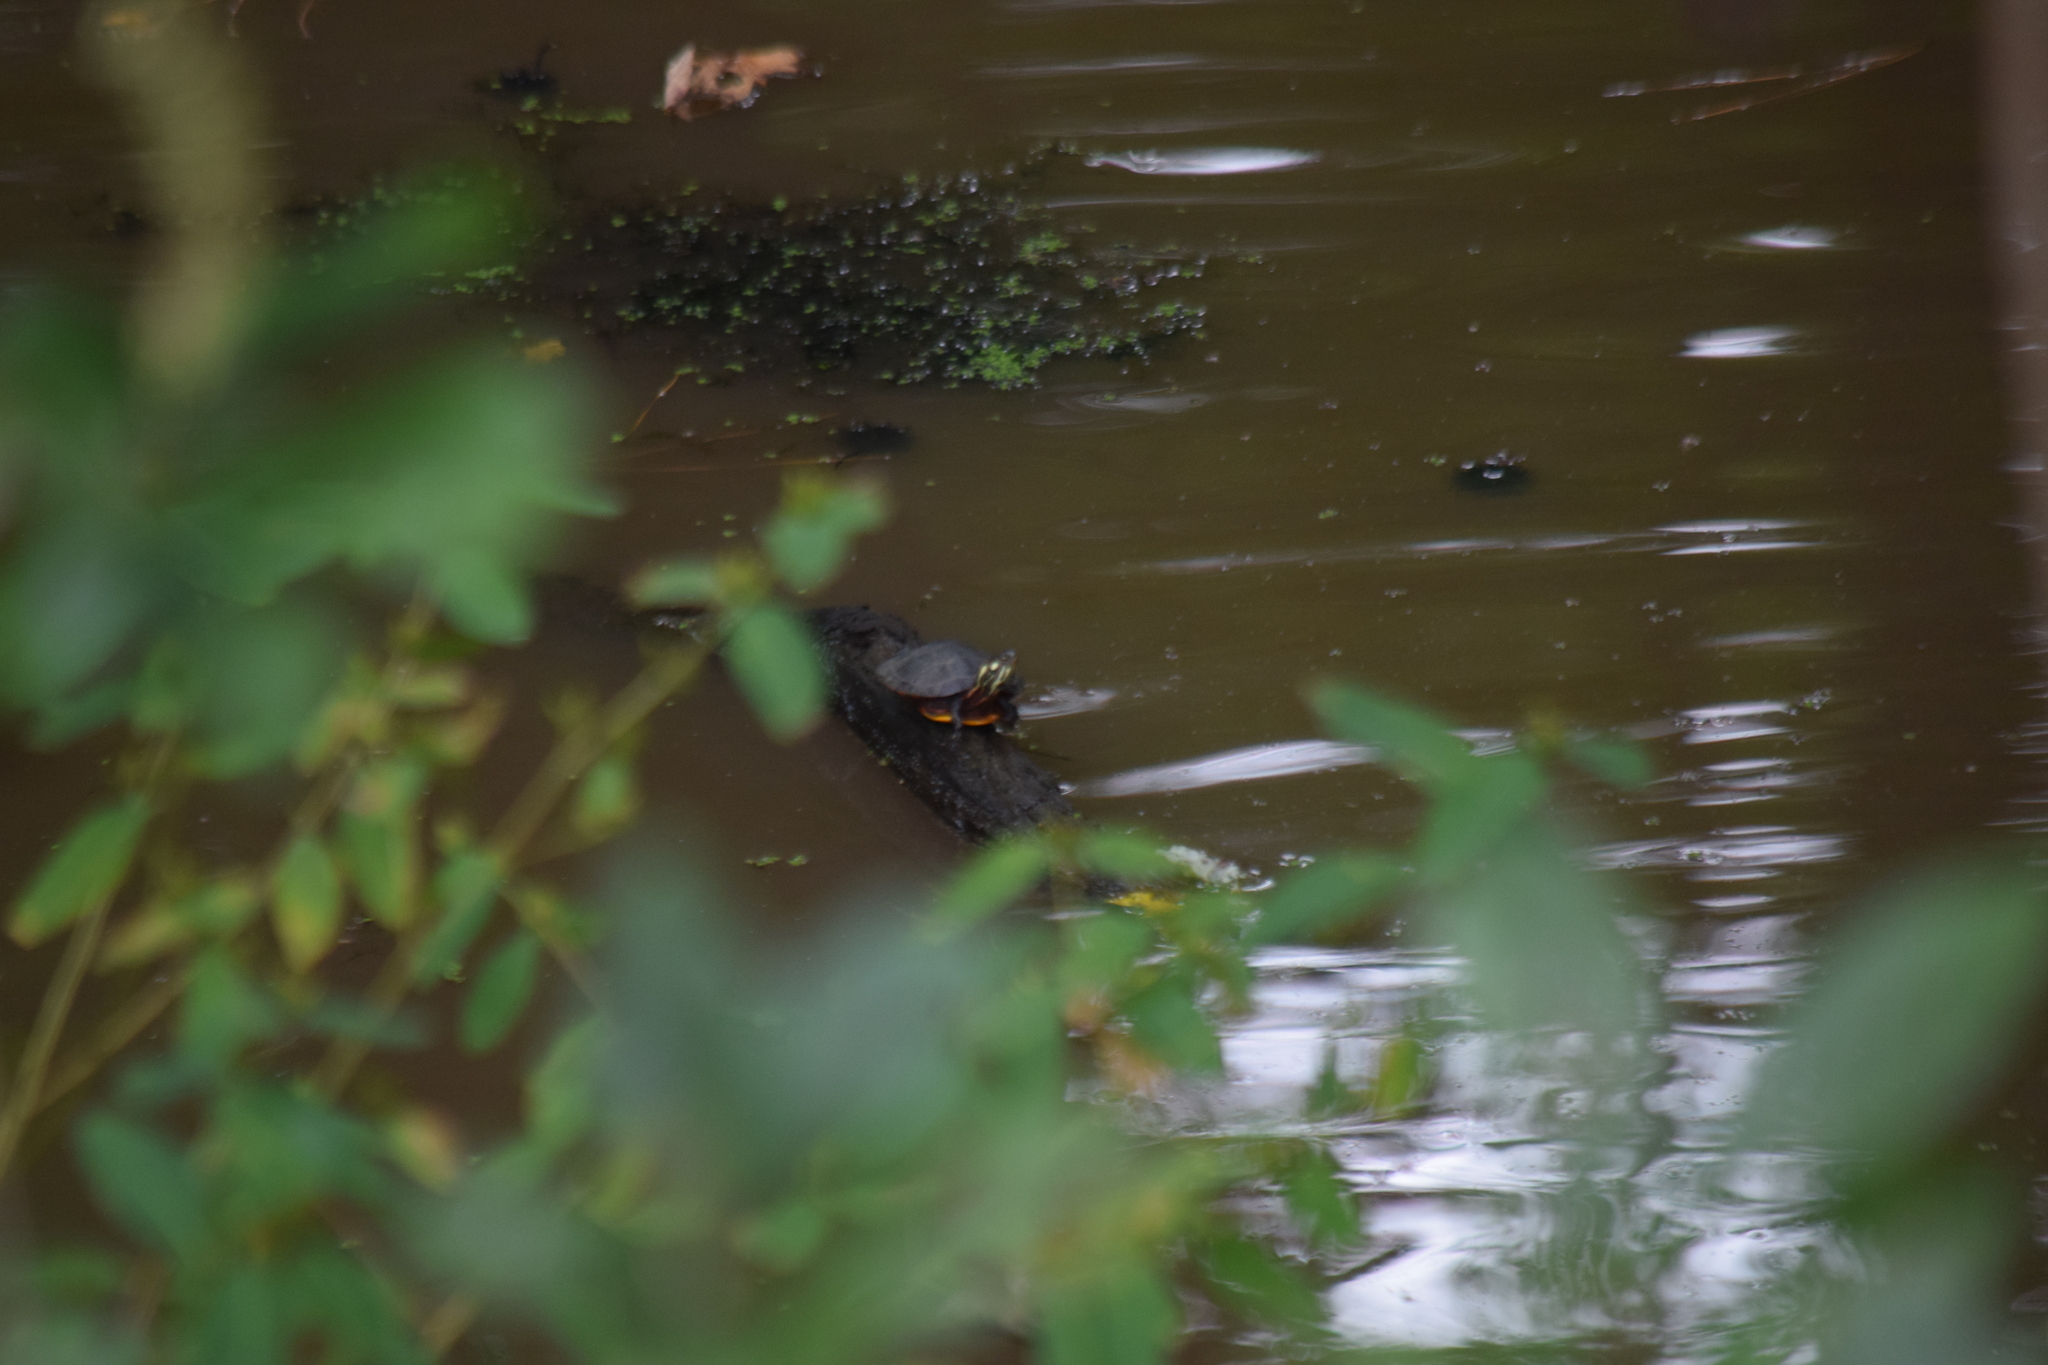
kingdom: Animalia
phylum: Chordata
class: Testudines
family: Emydidae
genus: Chrysemys
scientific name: Chrysemys picta
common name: Painted turtle
